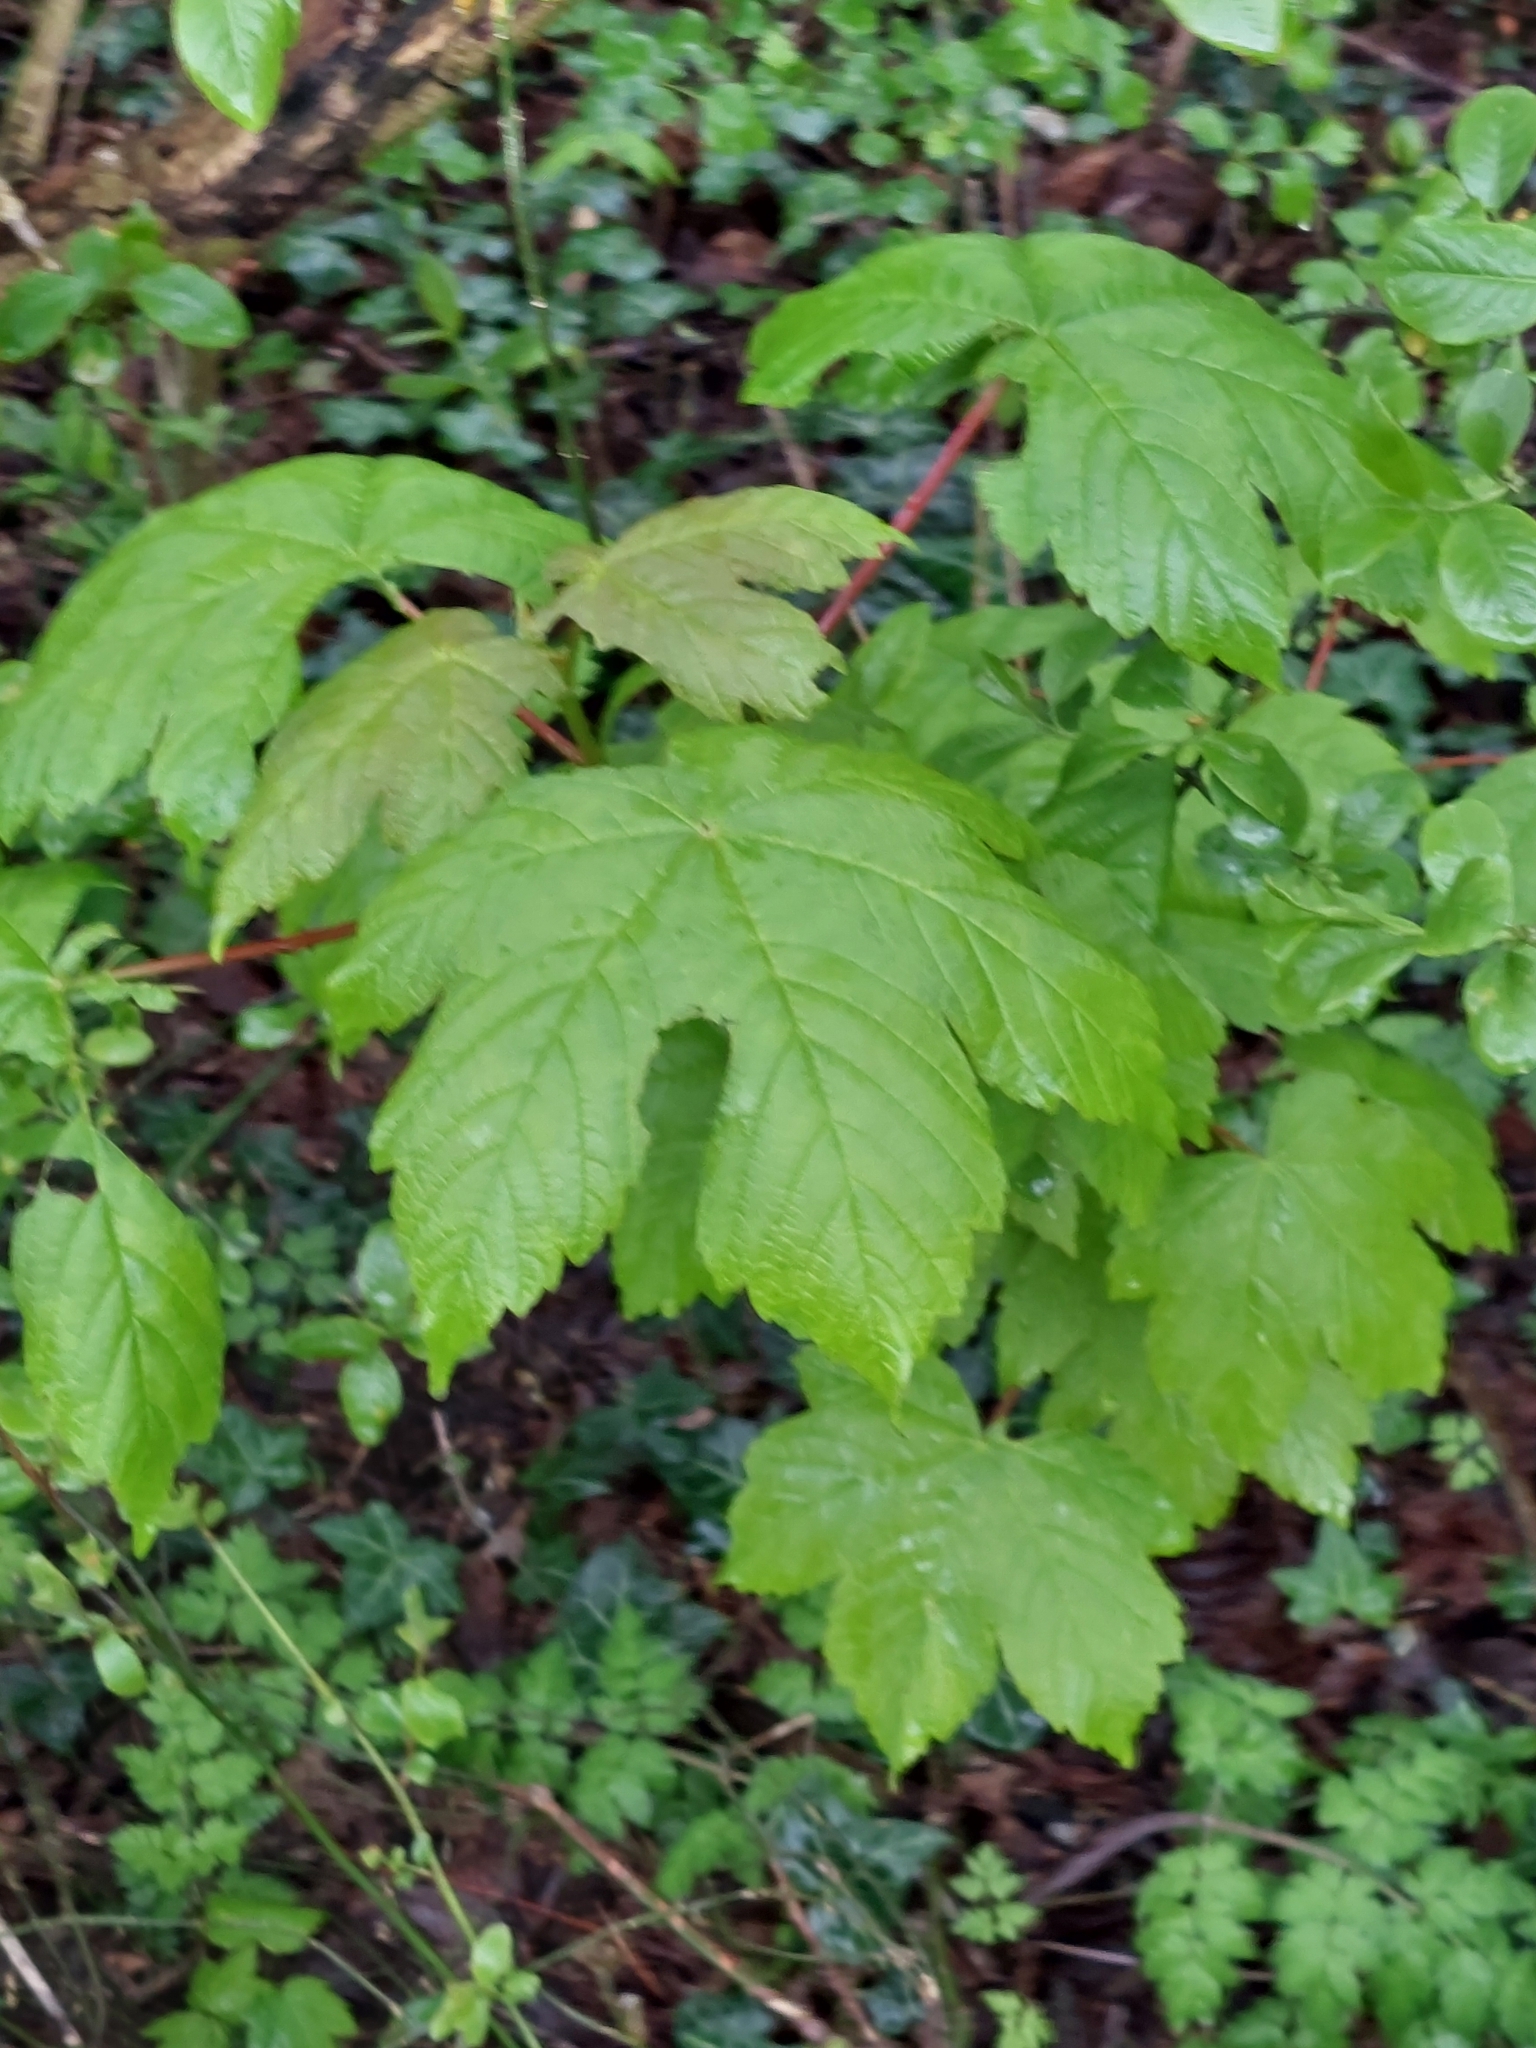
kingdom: Plantae
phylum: Tracheophyta
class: Magnoliopsida
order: Sapindales
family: Sapindaceae
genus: Acer
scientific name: Acer pseudoplatanus
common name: Sycamore
